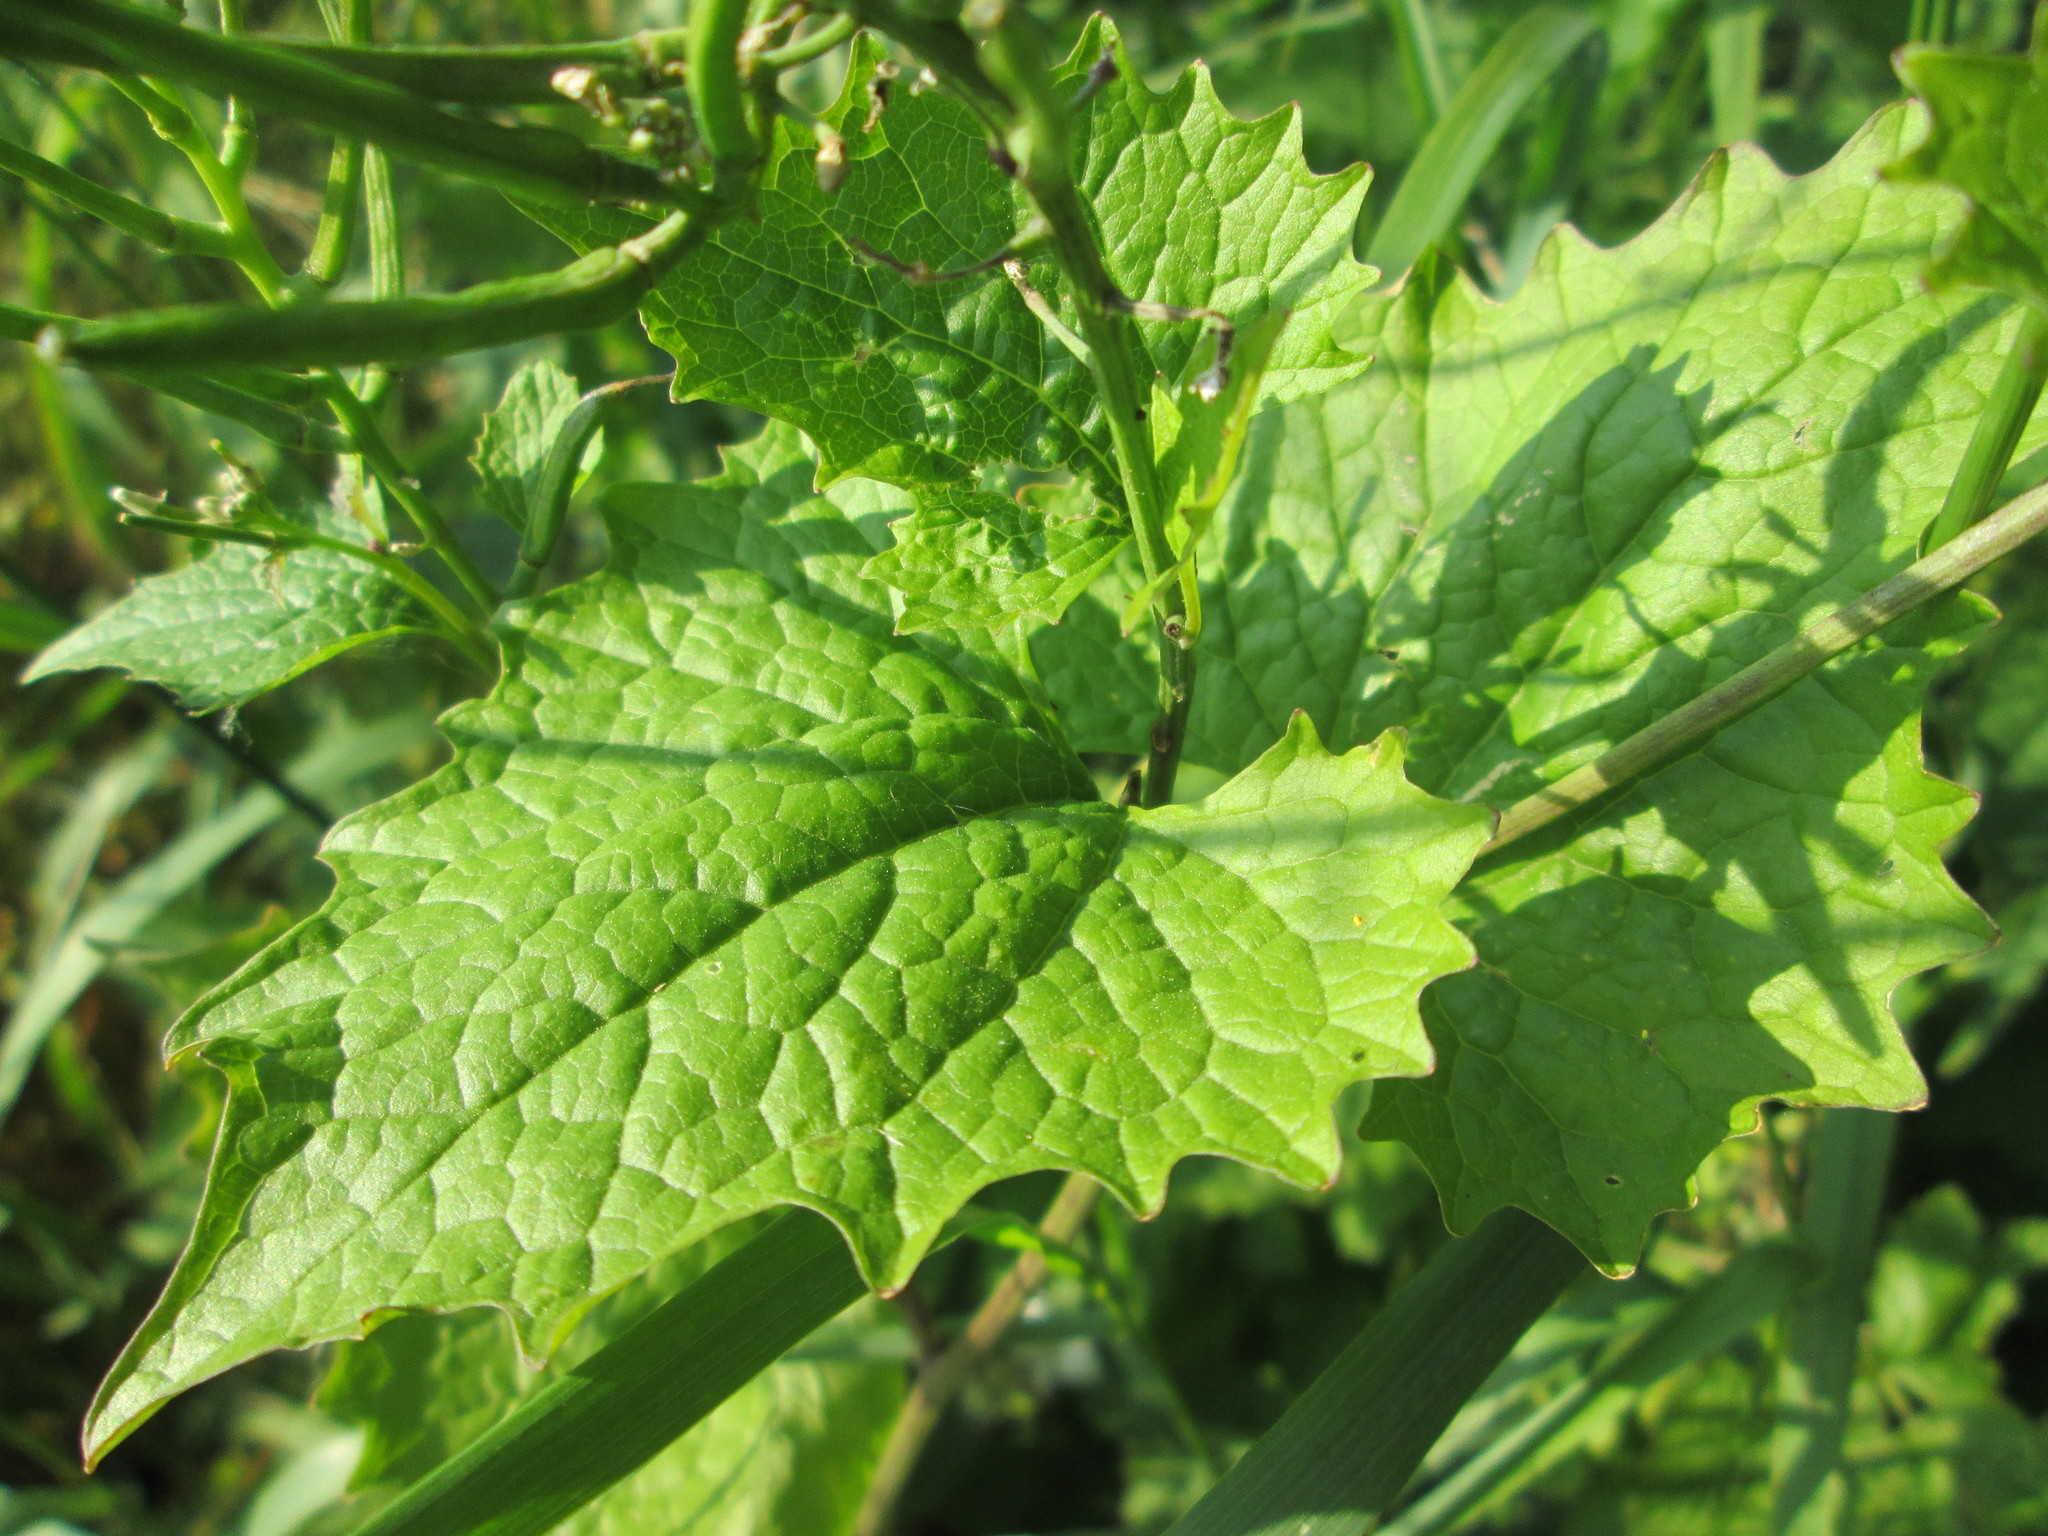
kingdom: Plantae
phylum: Tracheophyta
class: Magnoliopsida
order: Brassicales
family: Brassicaceae
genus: Alliaria
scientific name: Alliaria petiolata
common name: Garlic mustard
